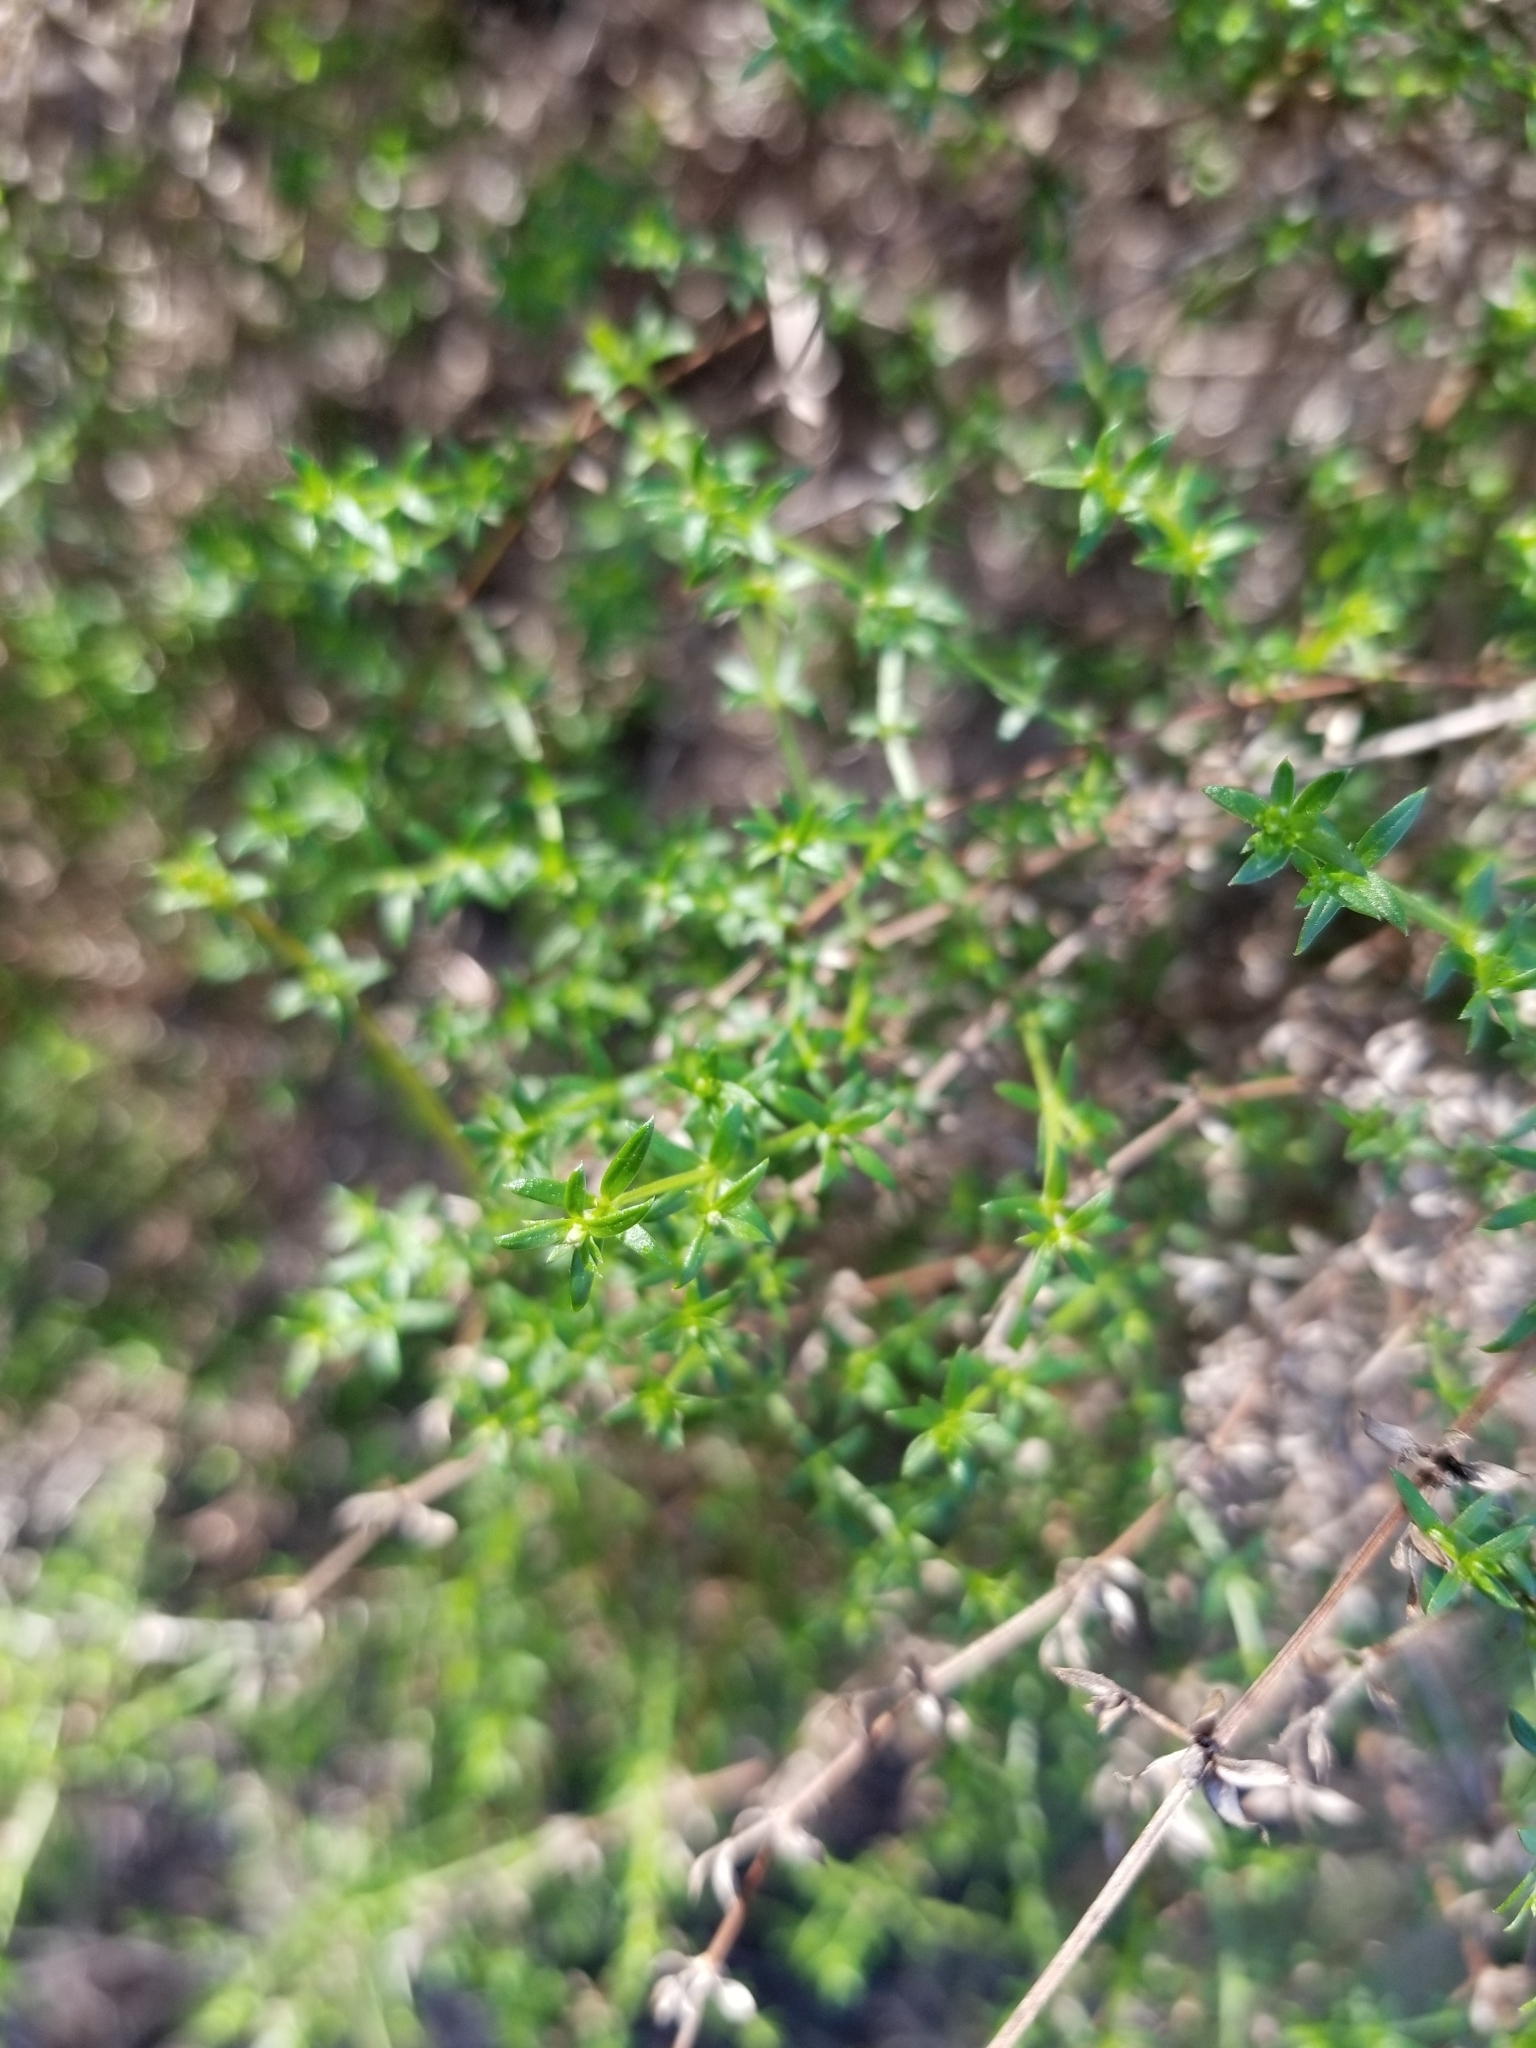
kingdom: Plantae
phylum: Tracheophyta
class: Magnoliopsida
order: Gentianales
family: Rubiaceae
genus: Galium
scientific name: Galium nuttallii
